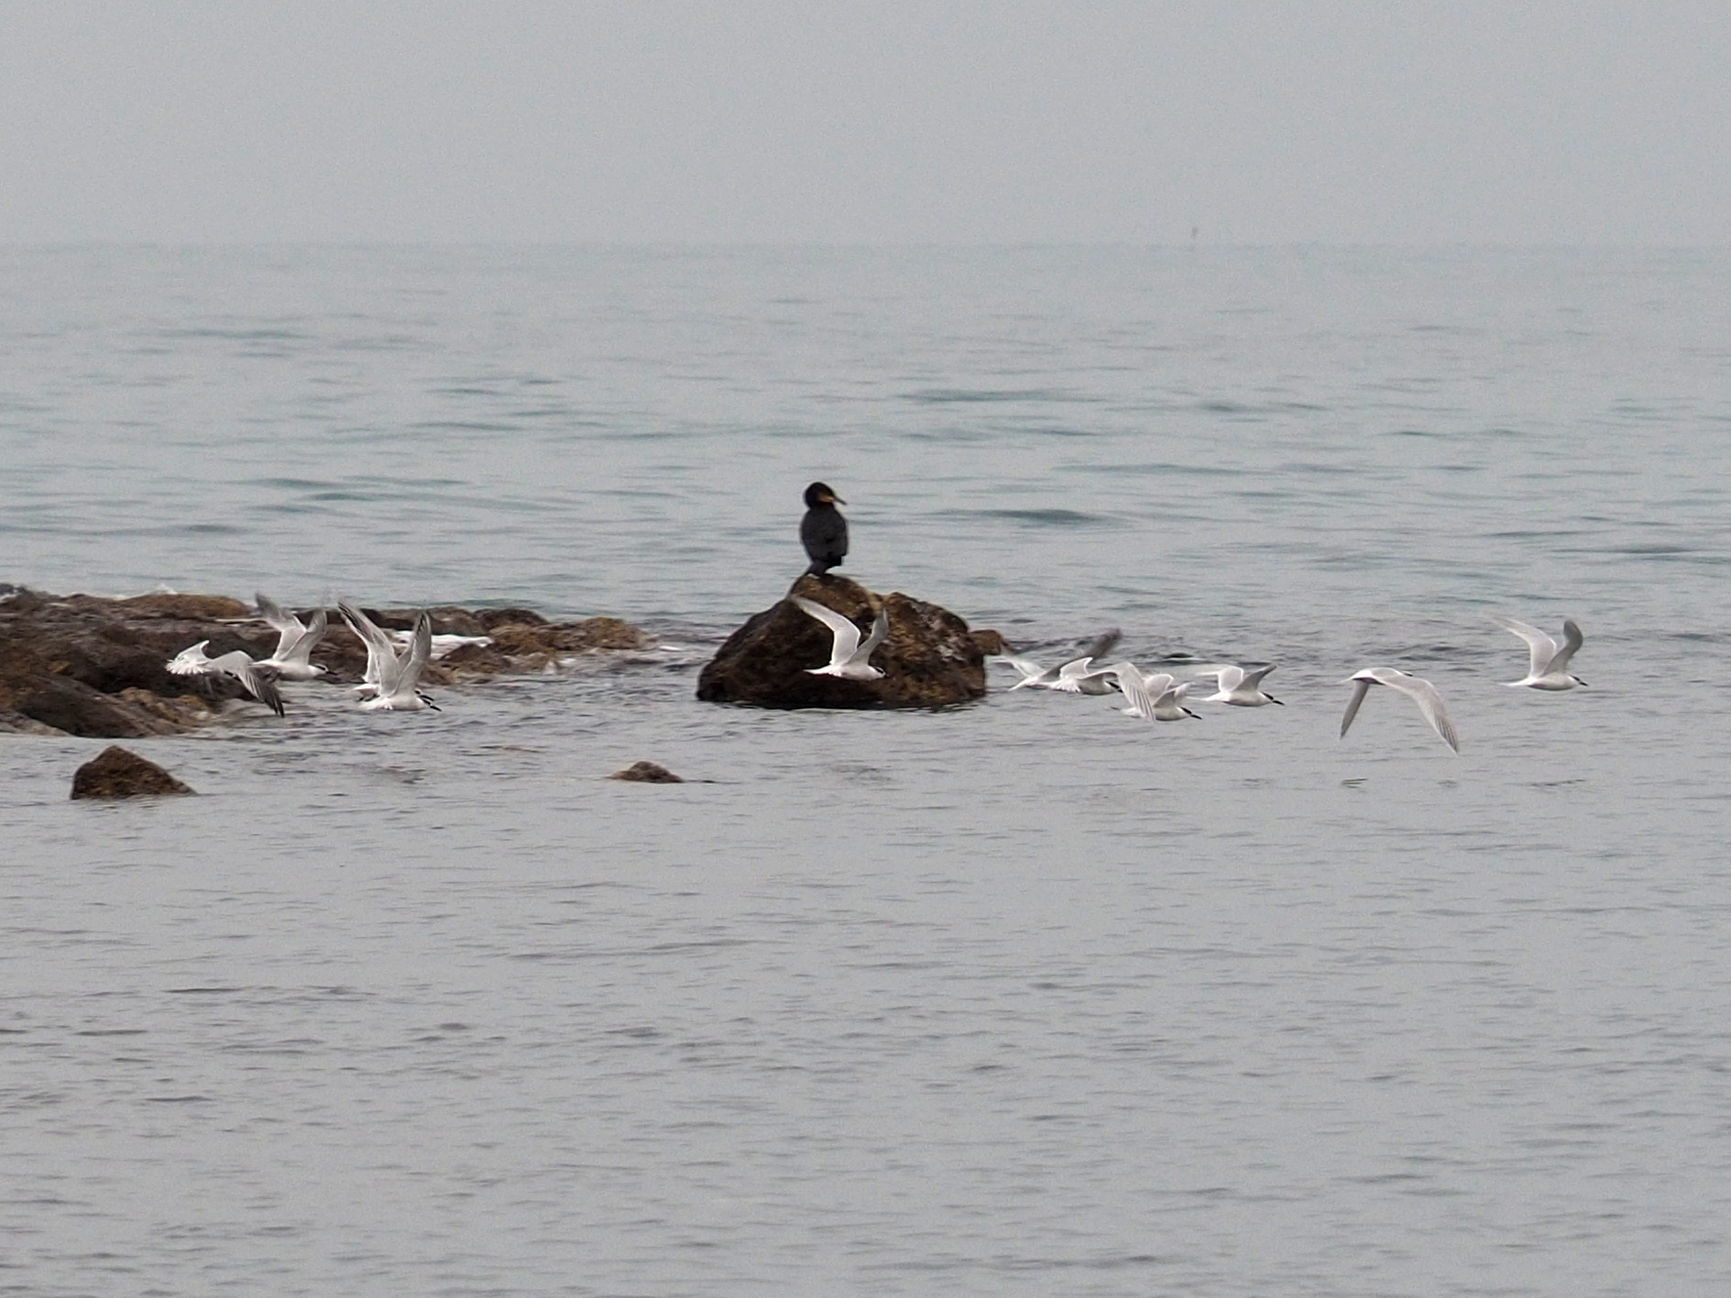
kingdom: Animalia
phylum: Chordata
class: Aves
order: Charadriiformes
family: Laridae
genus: Thalasseus
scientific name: Thalasseus sandvicensis
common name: Sandwich tern
